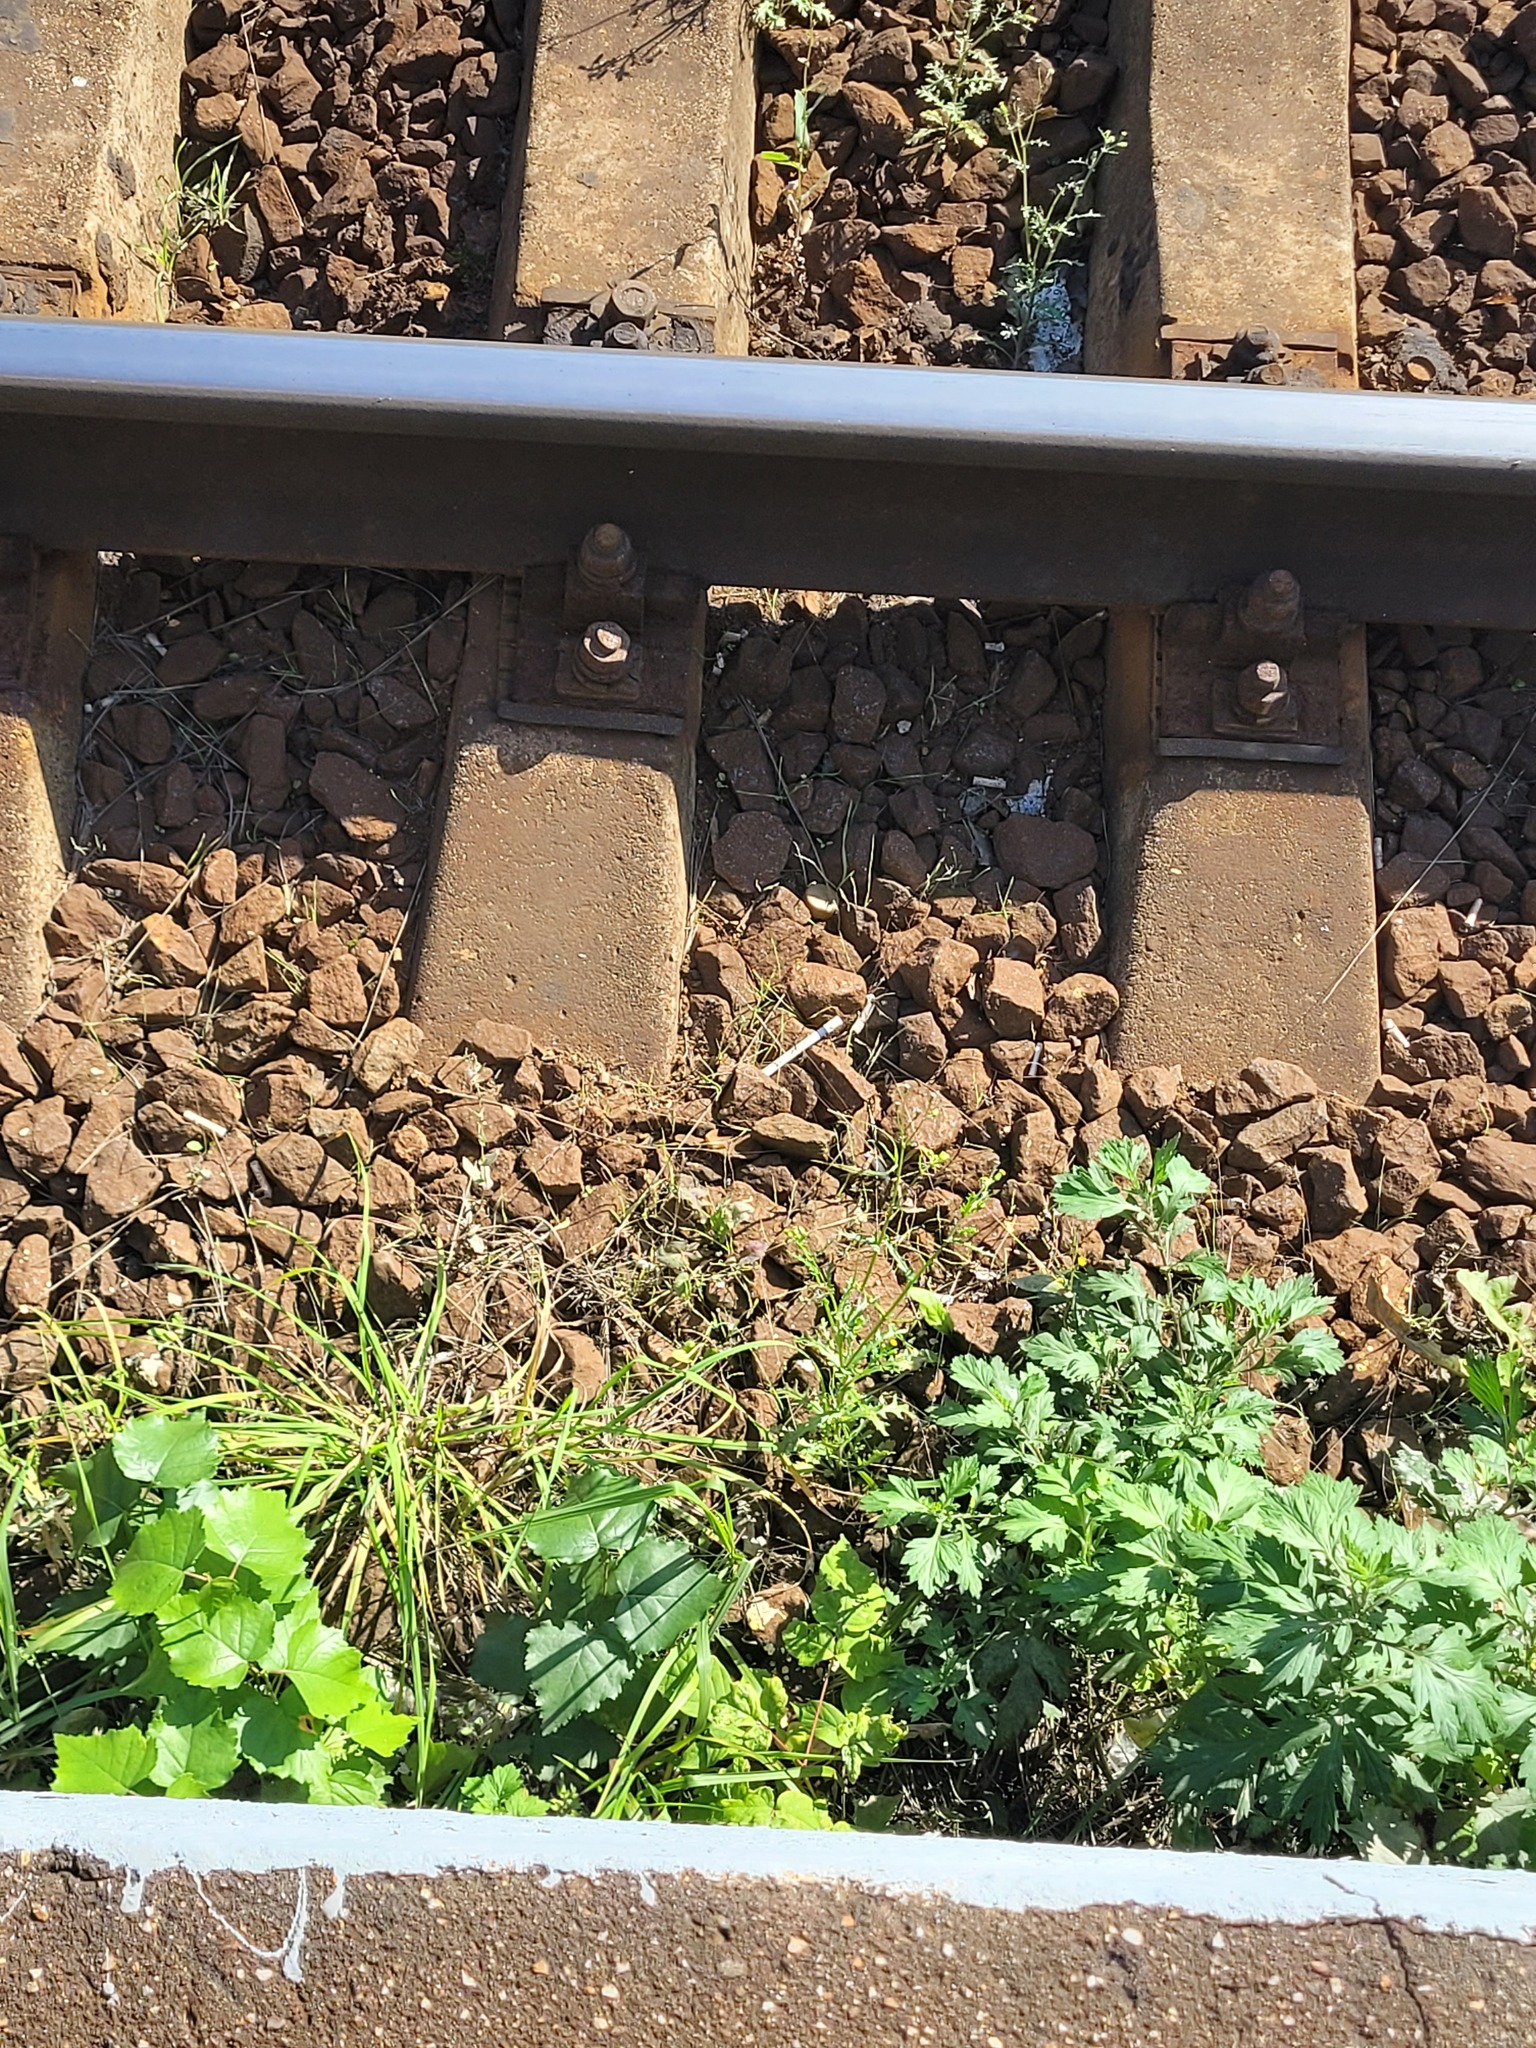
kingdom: Plantae
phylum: Tracheophyta
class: Magnoliopsida
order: Asterales
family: Asteraceae
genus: Senecio
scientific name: Senecio vulgaris
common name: Old-man-in-the-spring
